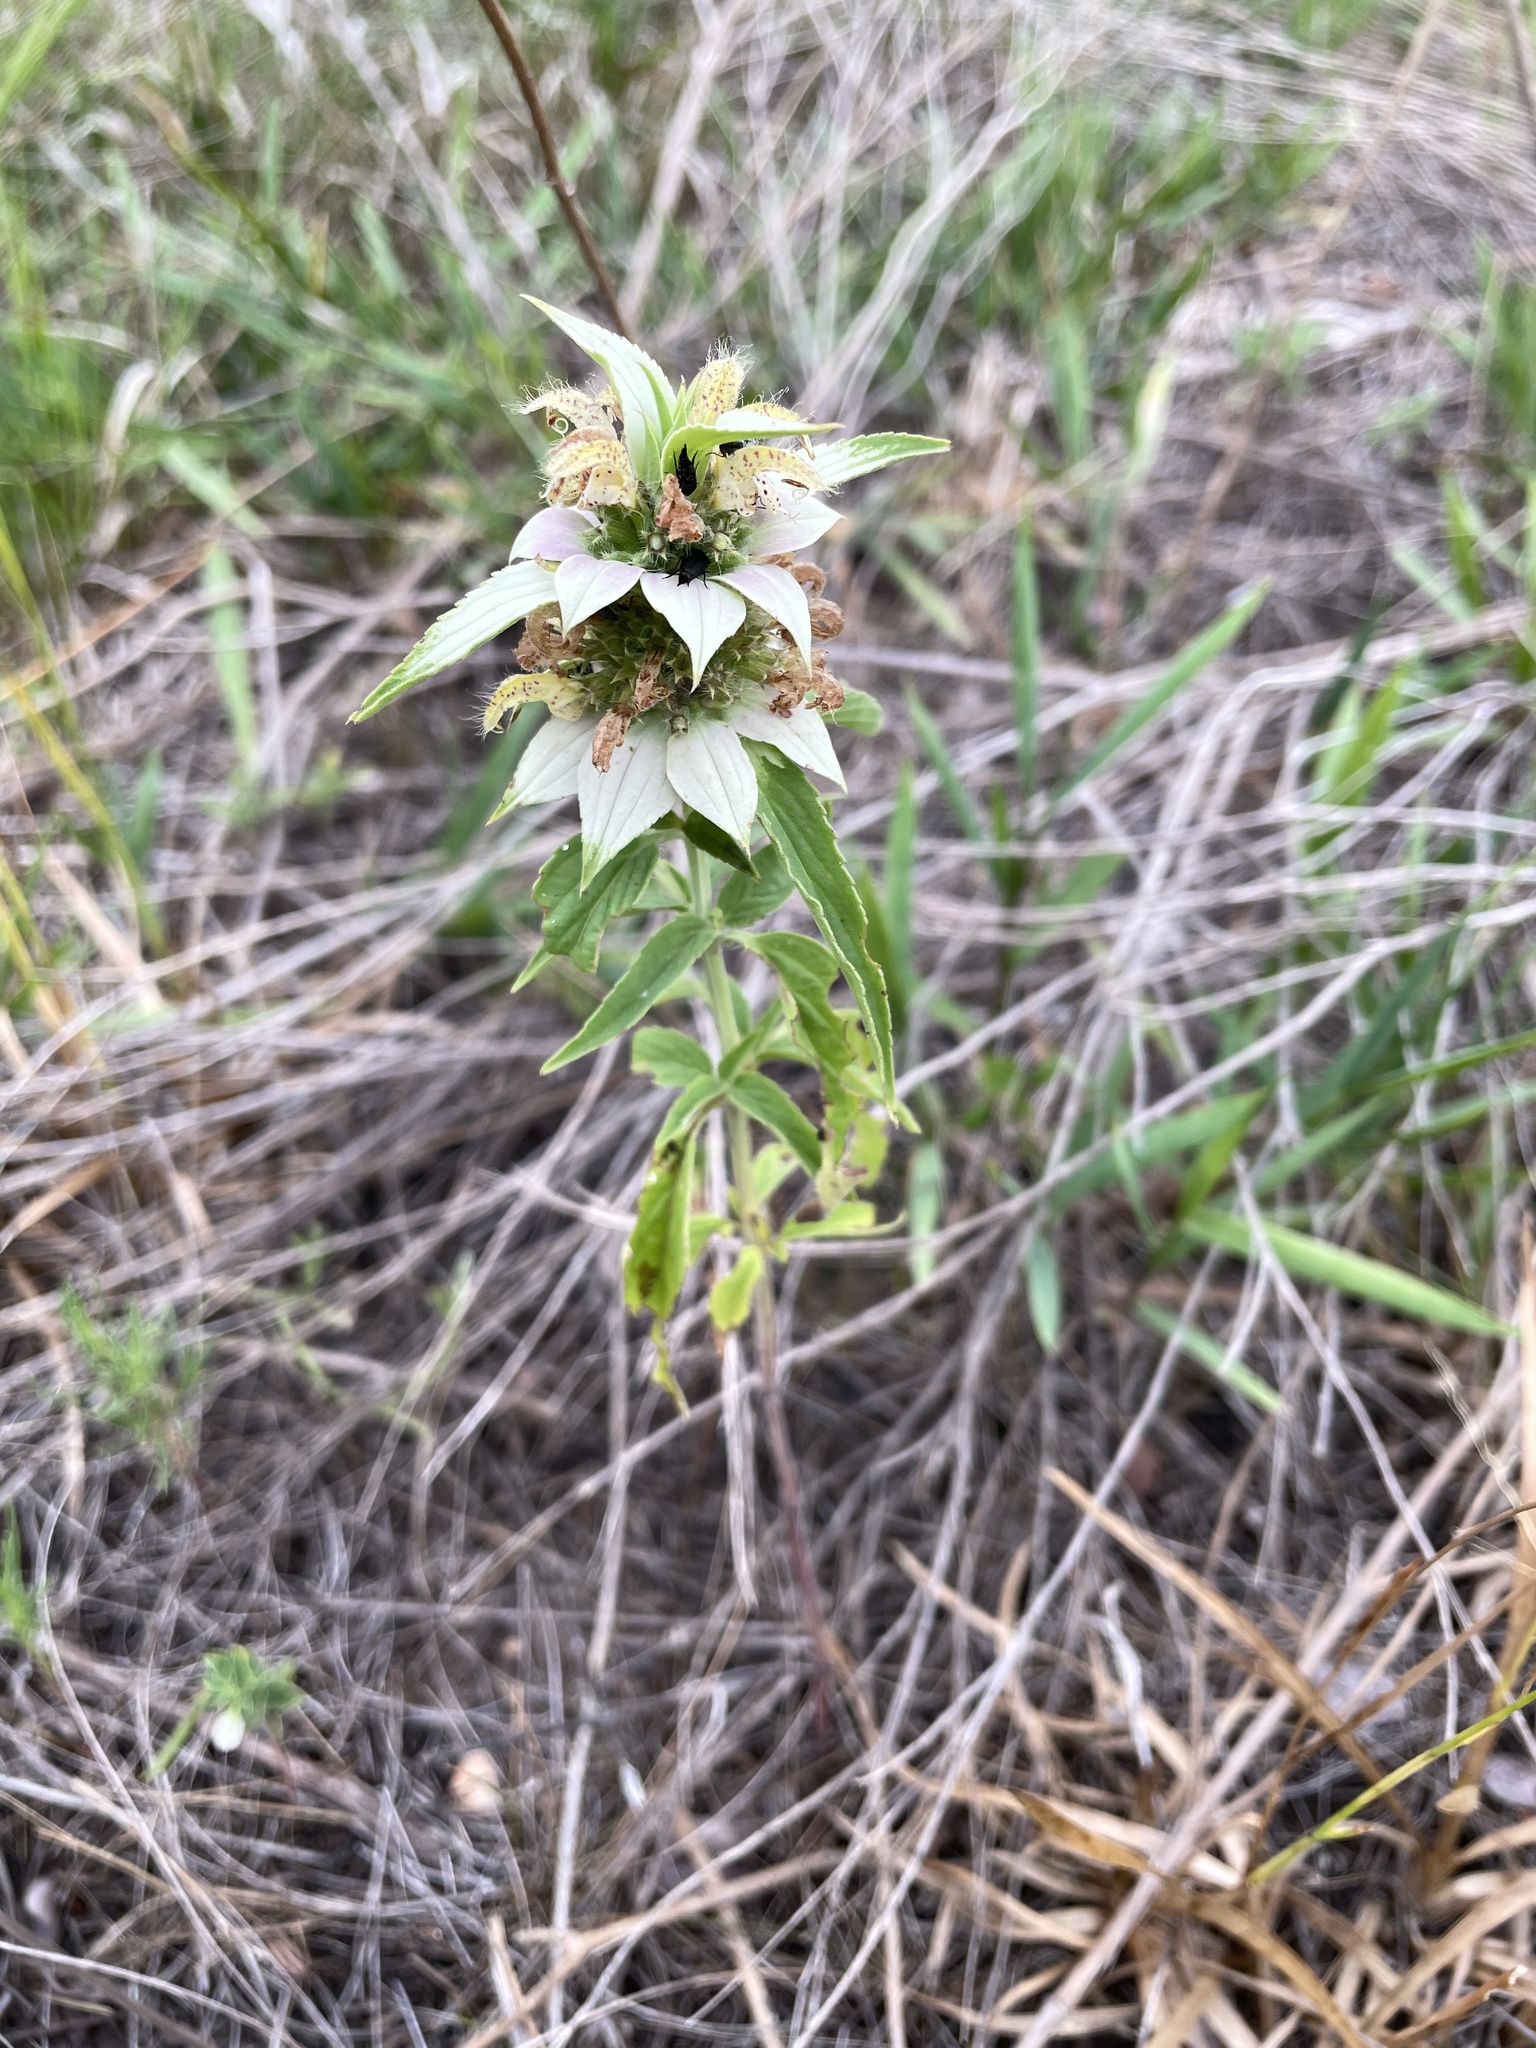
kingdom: Plantae
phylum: Tracheophyta
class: Magnoliopsida
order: Lamiales
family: Lamiaceae
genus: Monarda
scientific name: Monarda punctata
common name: Dotted monarda
